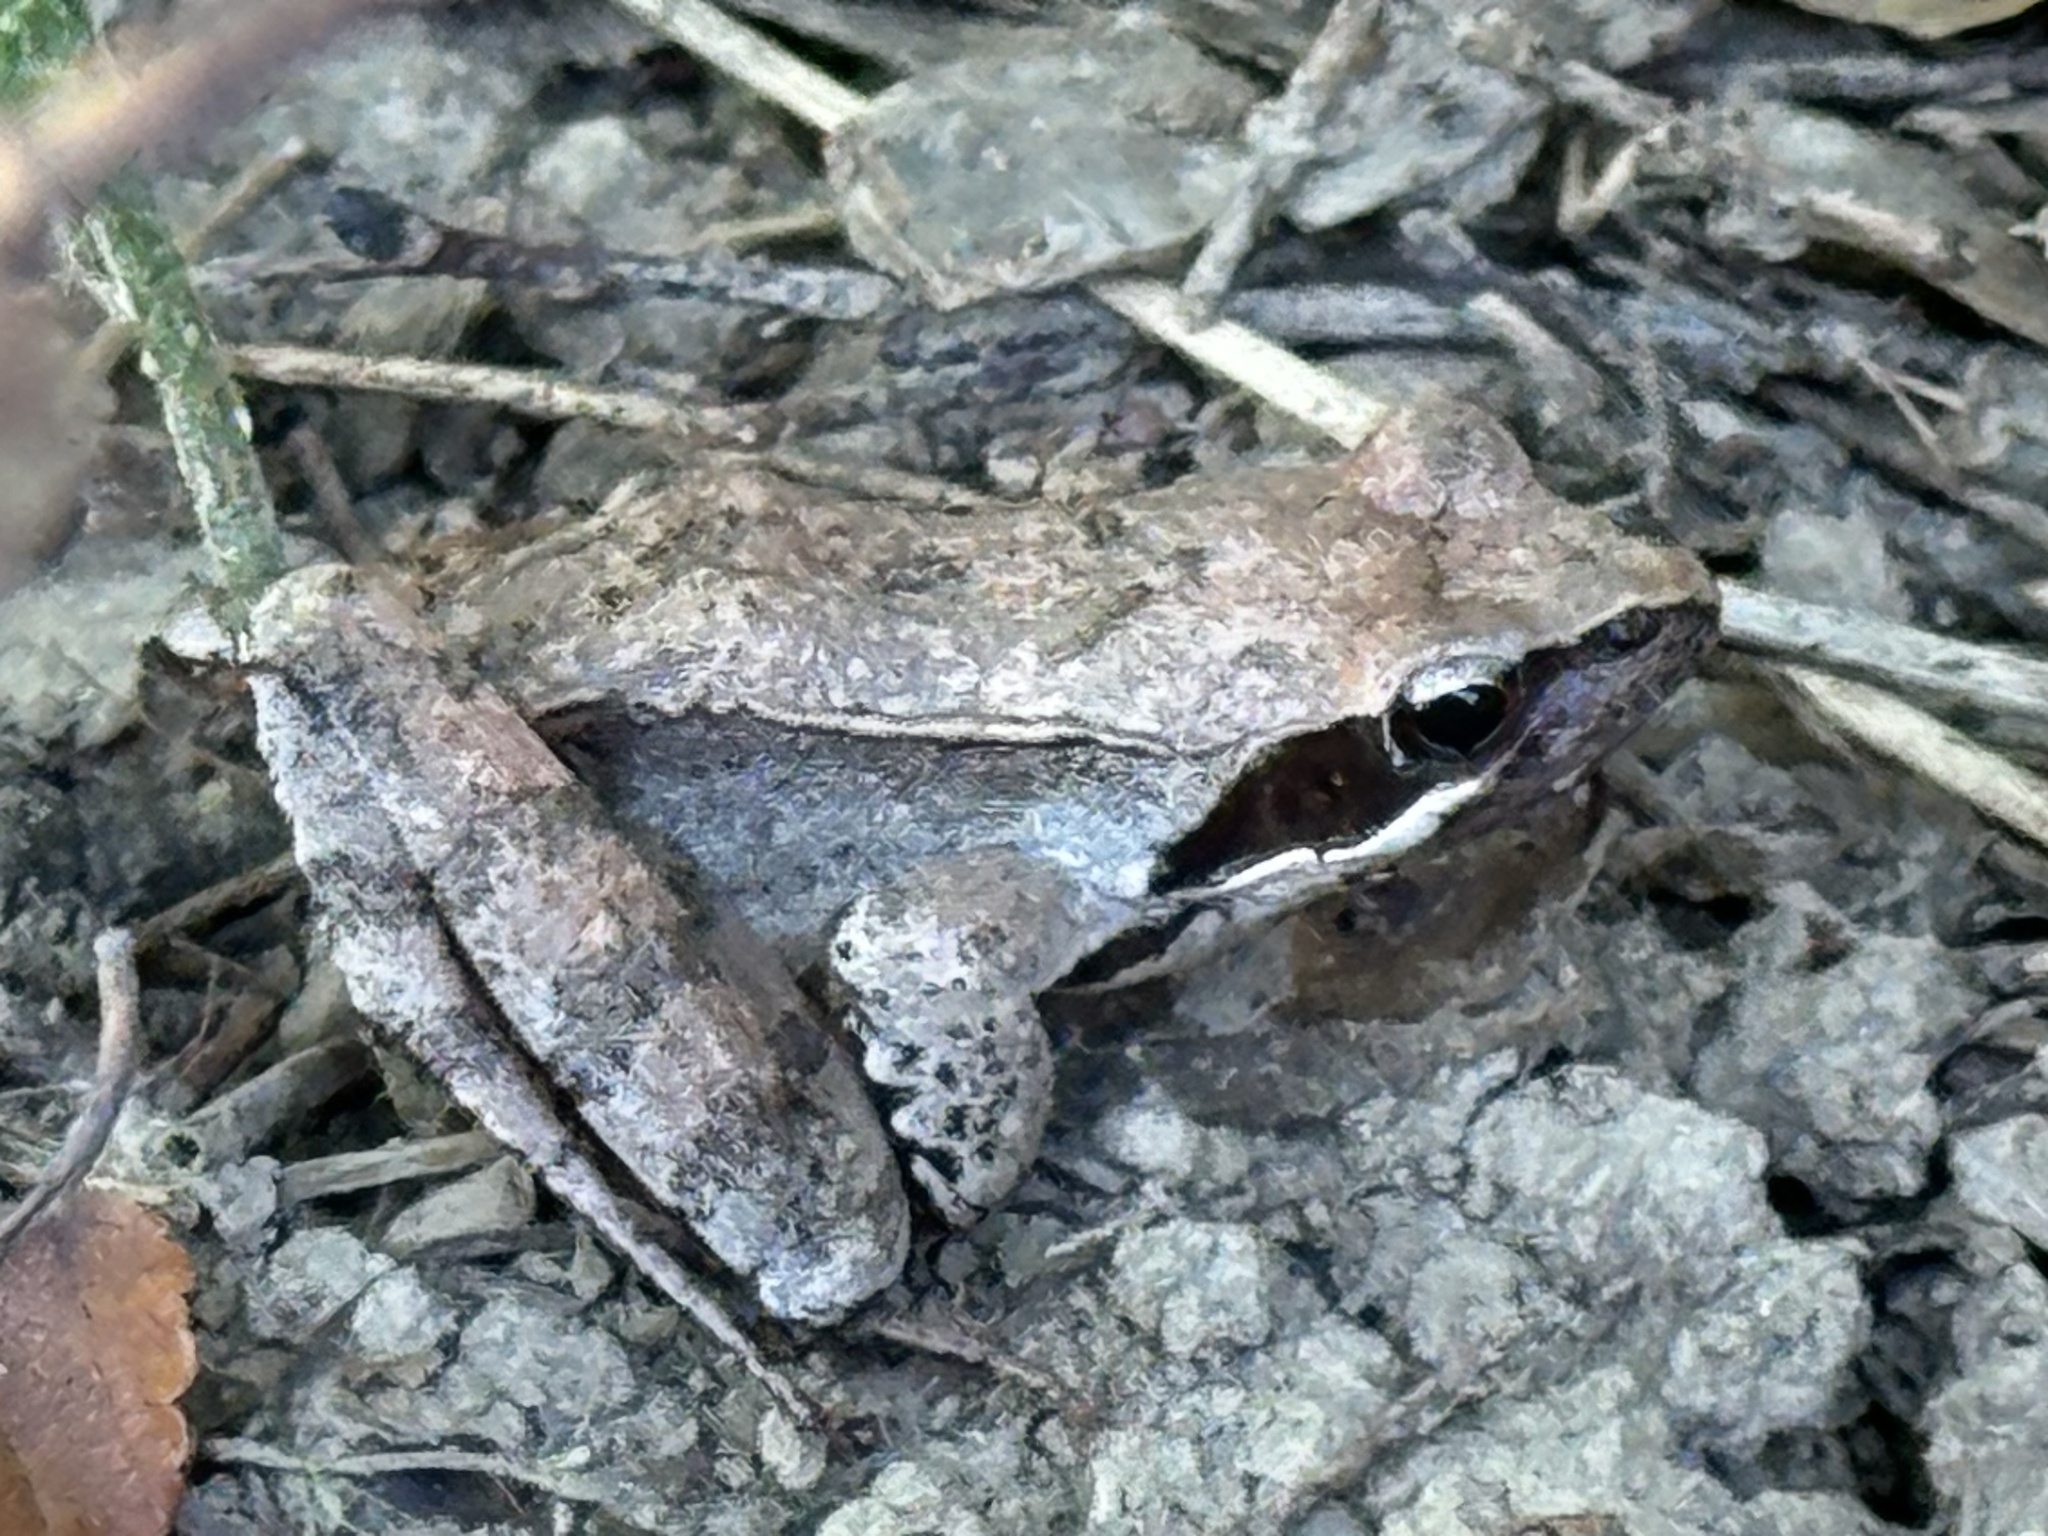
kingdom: Animalia
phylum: Chordata
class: Amphibia
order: Anura
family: Ranidae
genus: Rana
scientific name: Rana latastei
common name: Italian agile frog
